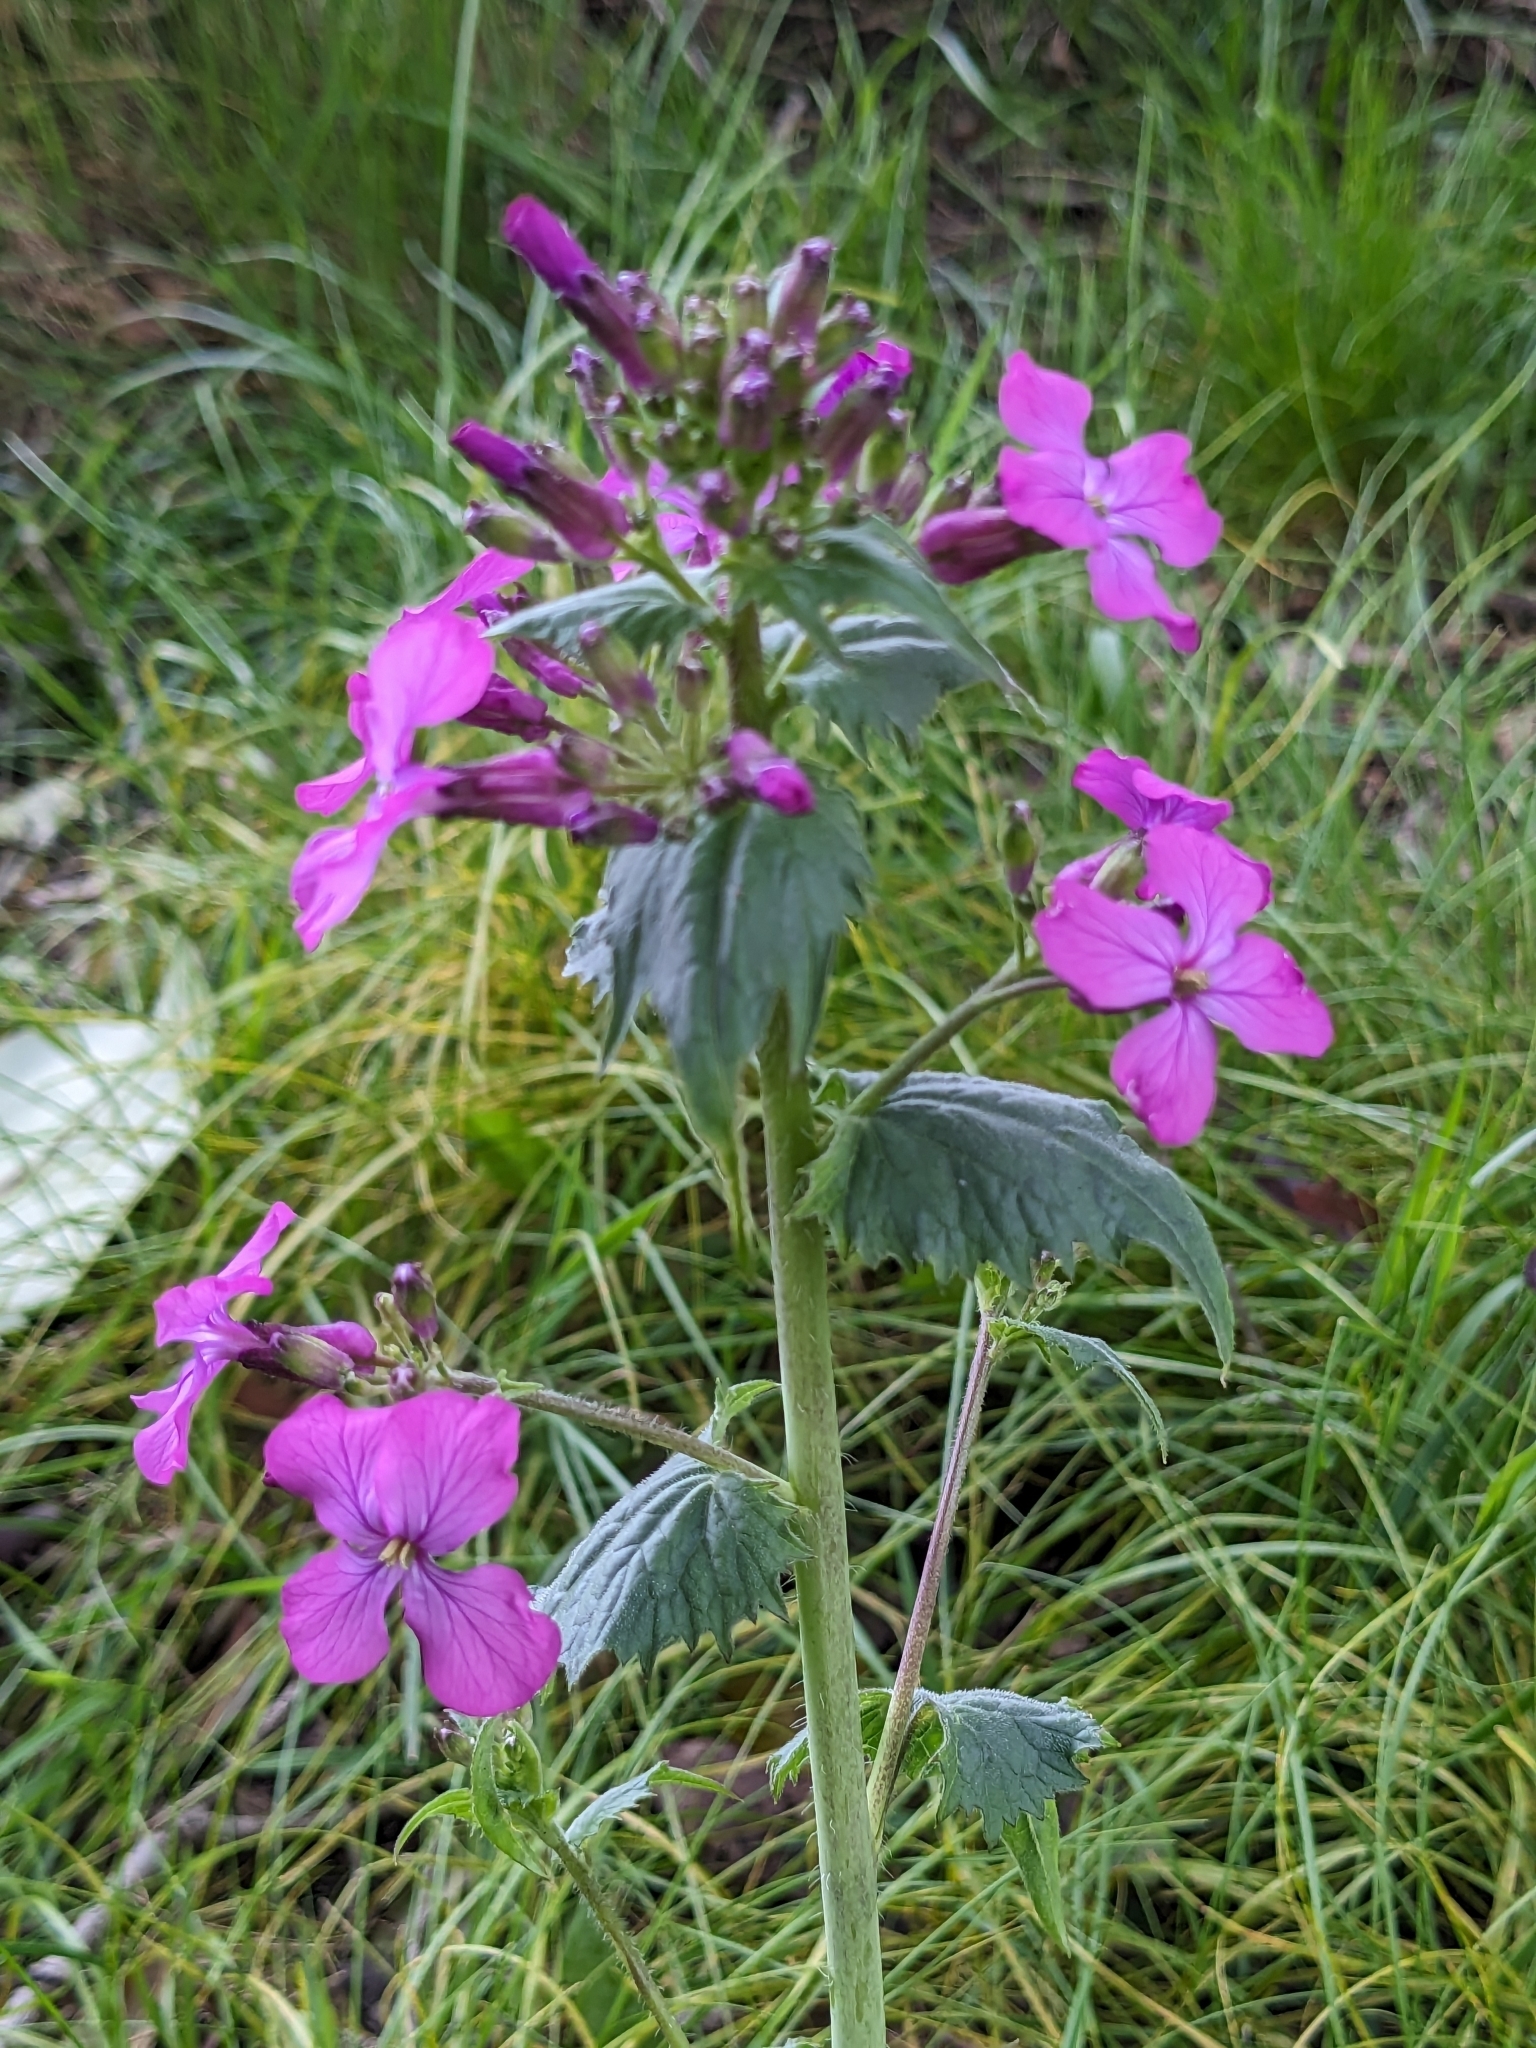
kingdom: Plantae
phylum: Tracheophyta
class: Magnoliopsida
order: Brassicales
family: Brassicaceae
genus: Lunaria
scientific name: Lunaria annua
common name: Honesty
